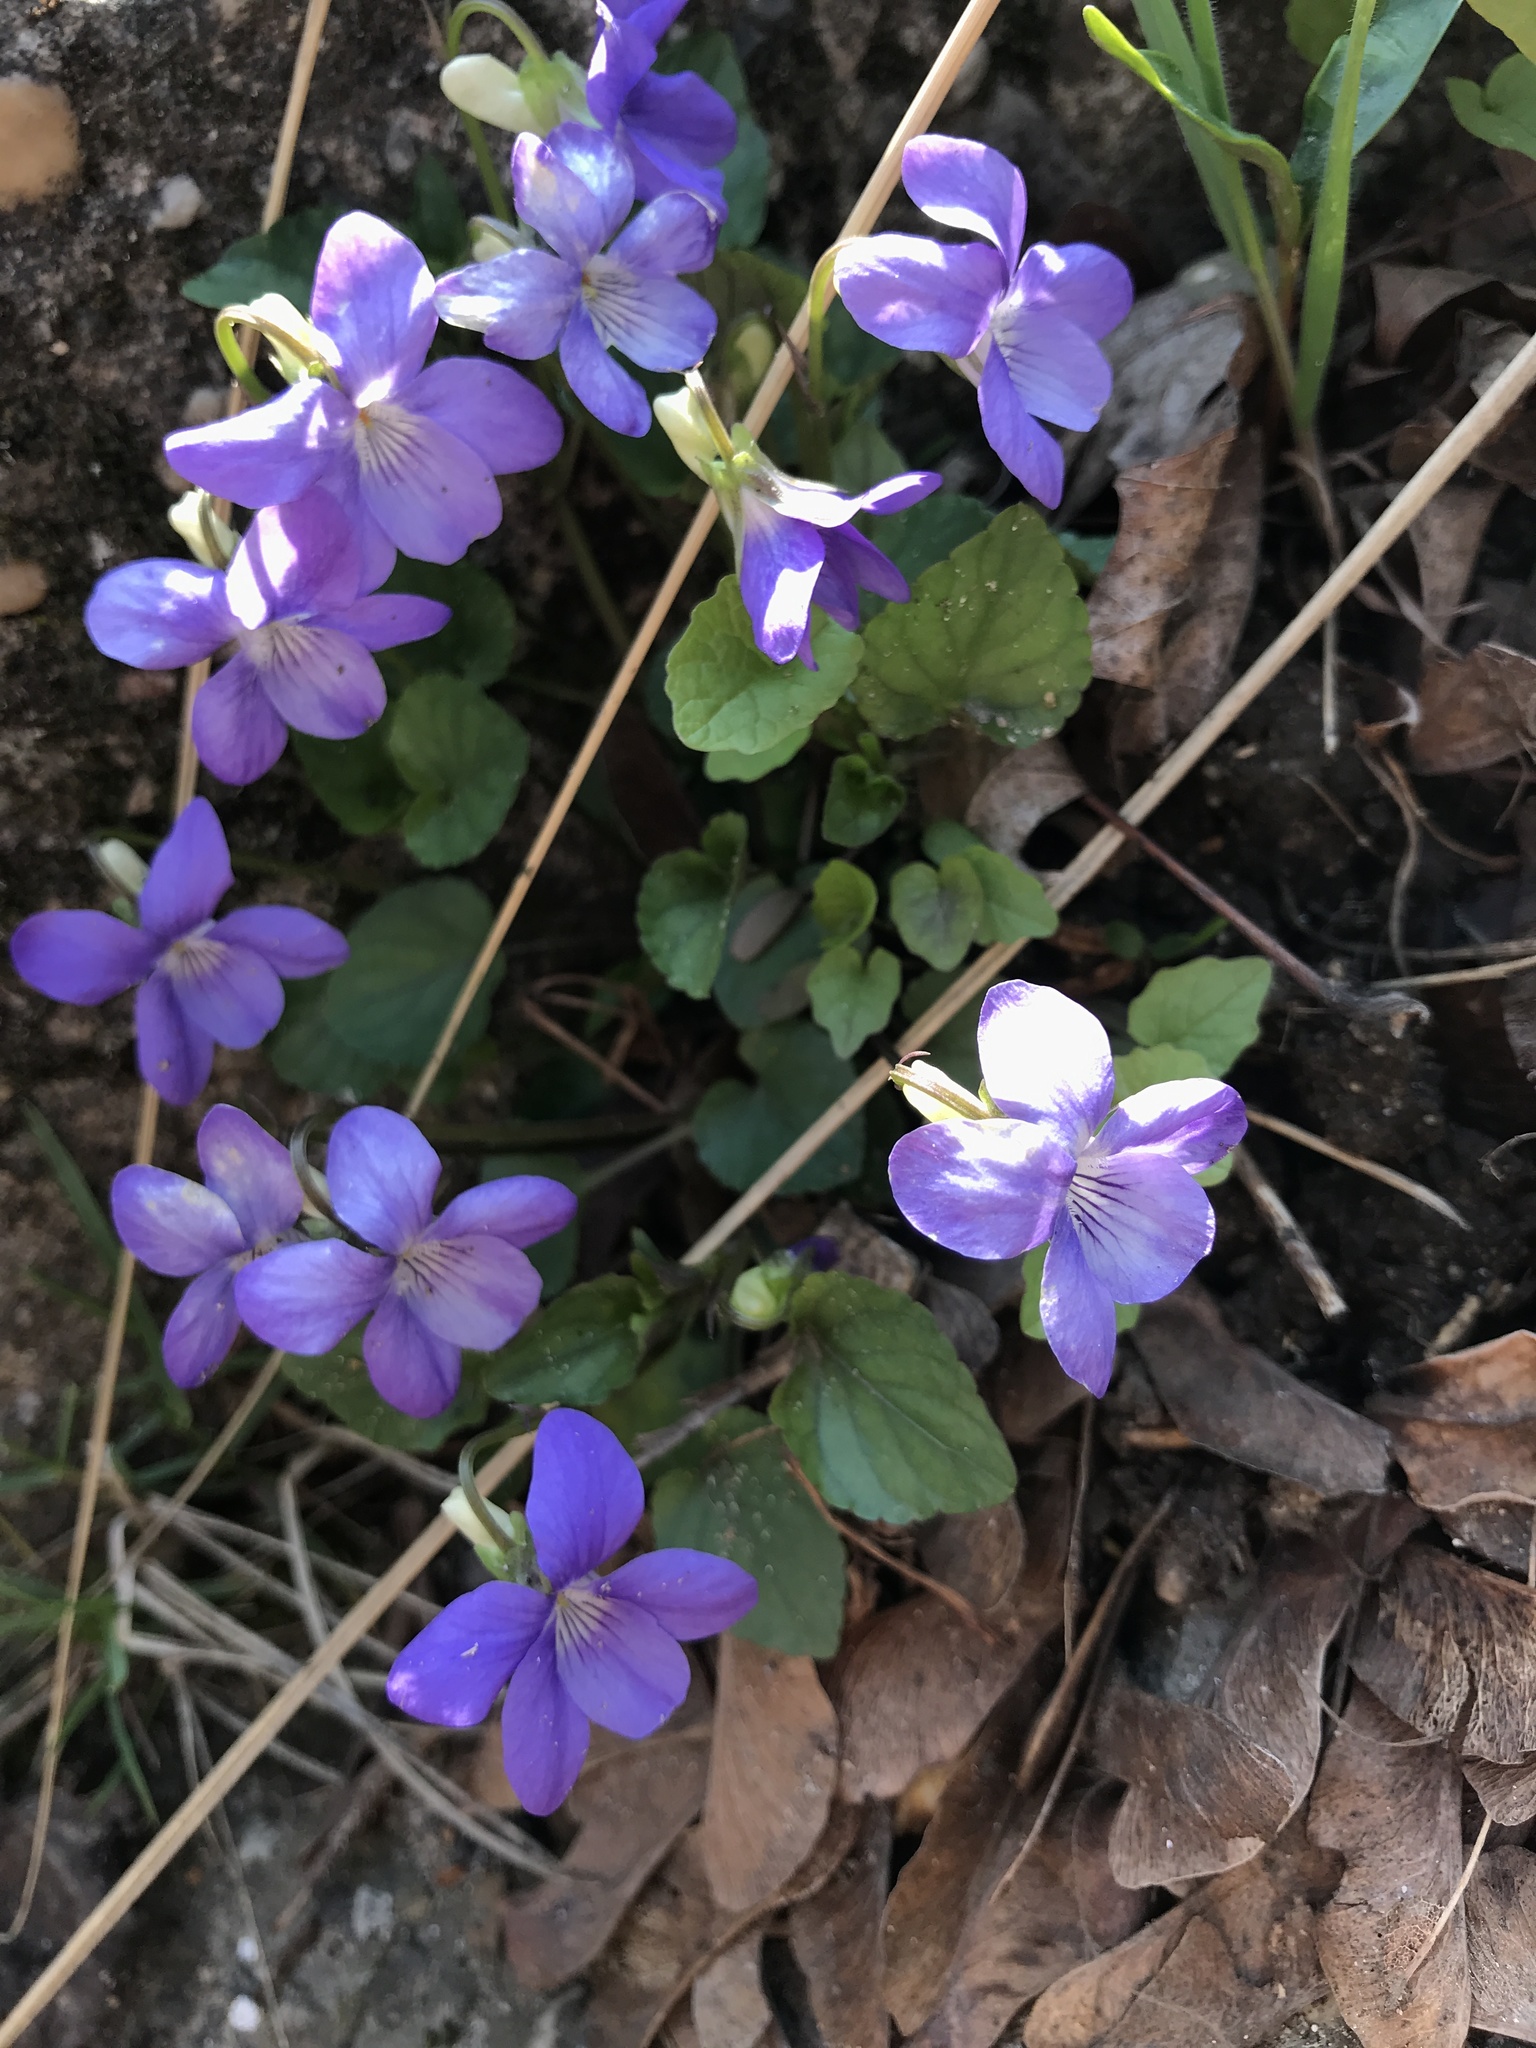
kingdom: Plantae
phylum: Tracheophyta
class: Magnoliopsida
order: Malpighiales
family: Violaceae
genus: Viola
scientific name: Viola riviniana
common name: Common dog-violet
